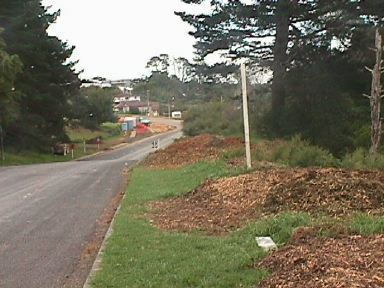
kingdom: Plantae
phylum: Tracheophyta
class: Liliopsida
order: Poales
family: Poaceae
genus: Cenchrus
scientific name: Cenchrus clandestinus
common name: Kikuyugrass
